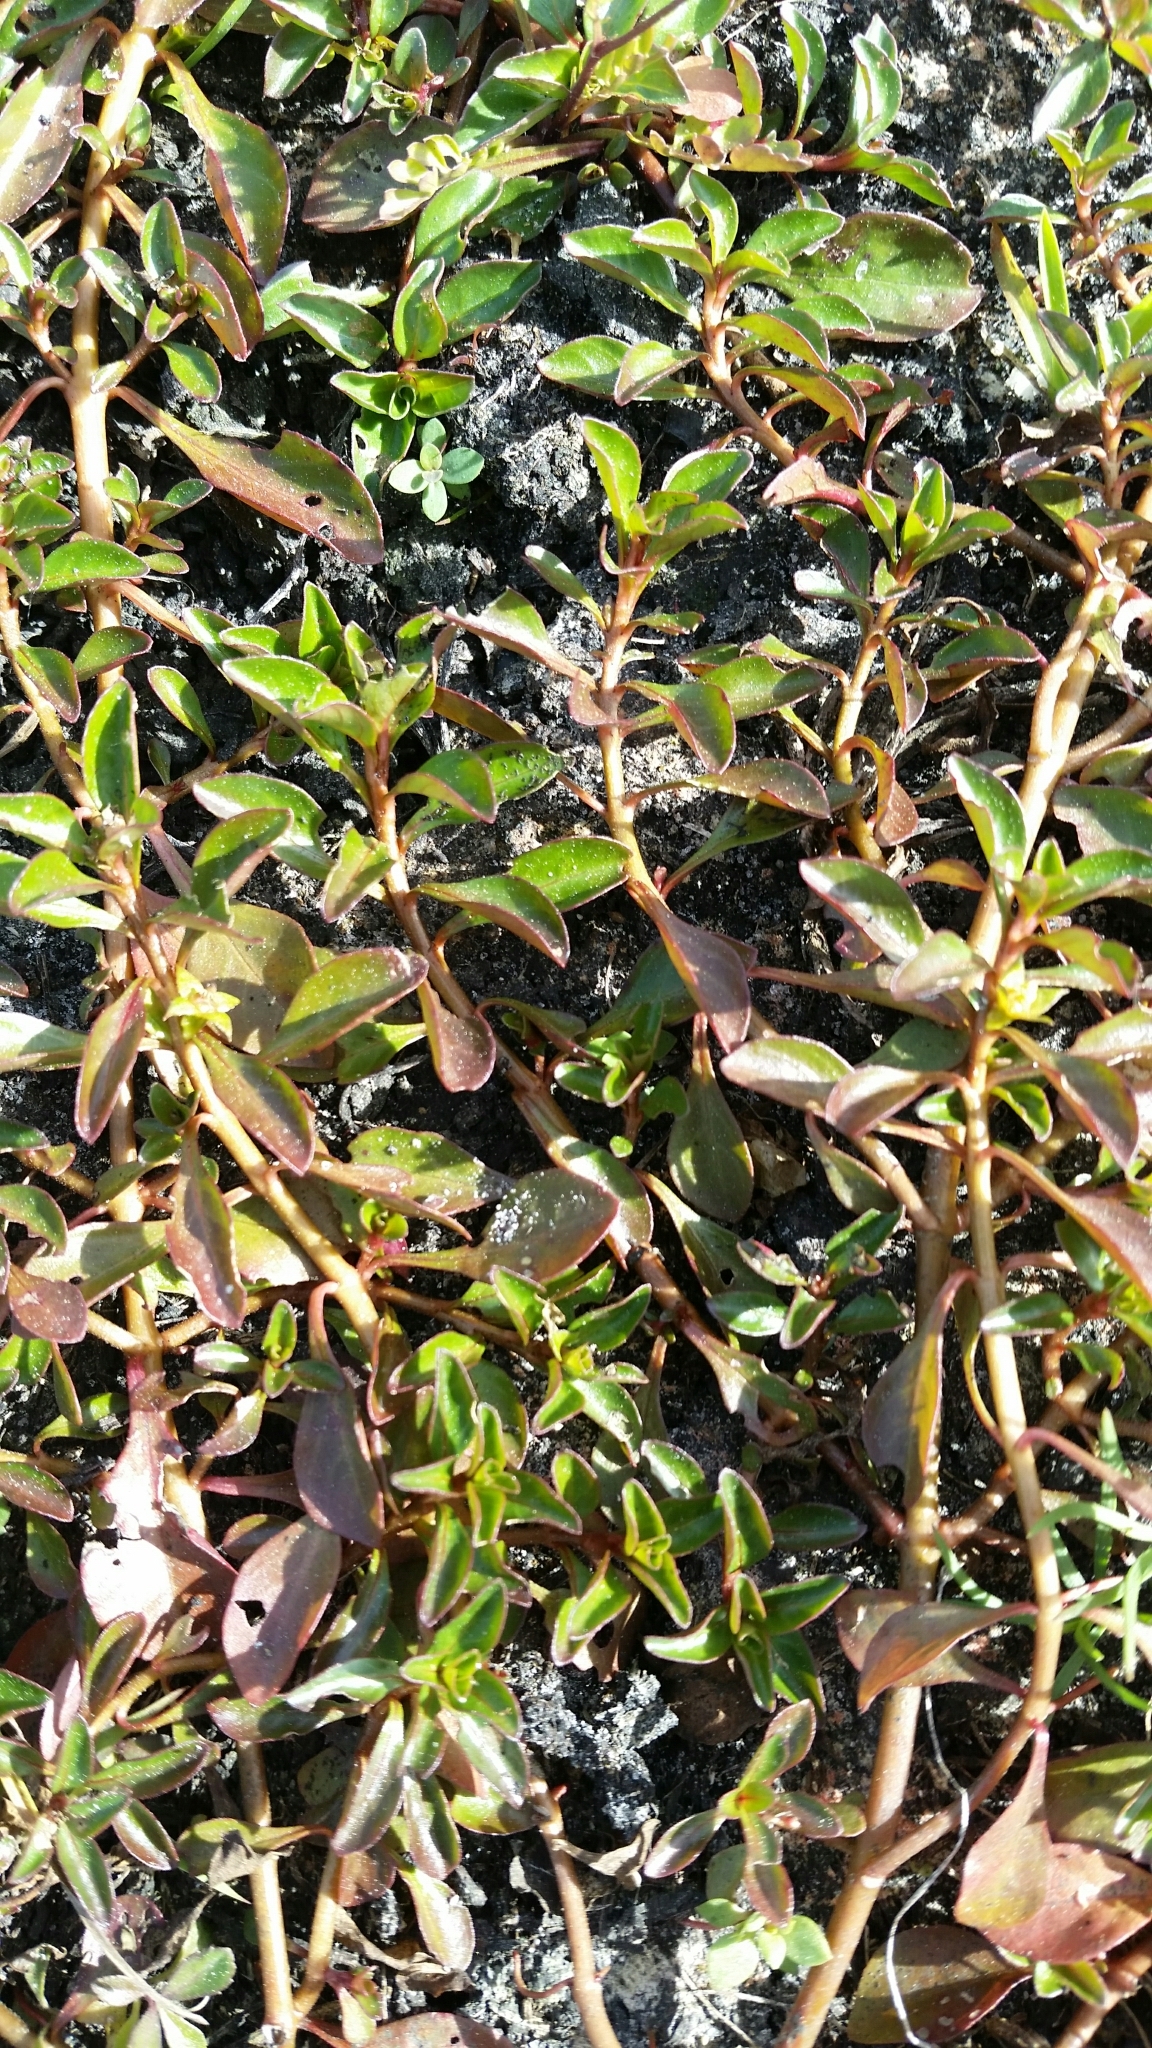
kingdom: Plantae
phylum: Tracheophyta
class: Magnoliopsida
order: Myrtales
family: Onagraceae
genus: Ludwigia
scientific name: Ludwigia repens
